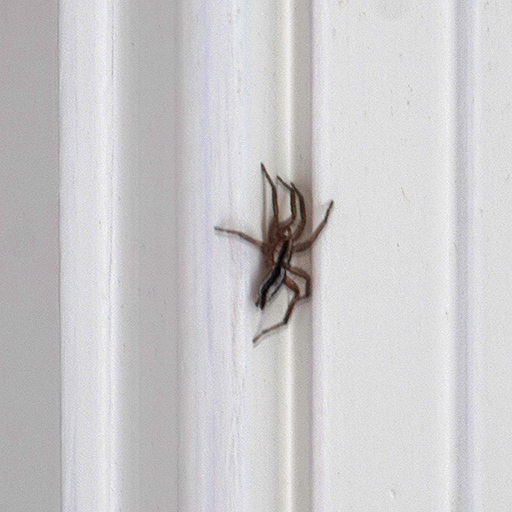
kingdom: Animalia
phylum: Arthropoda
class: Arachnida
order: Araneae
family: Gnaphosidae
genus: Cesonia
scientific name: Cesonia bilineata
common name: Two-lined stealthy ground spider
